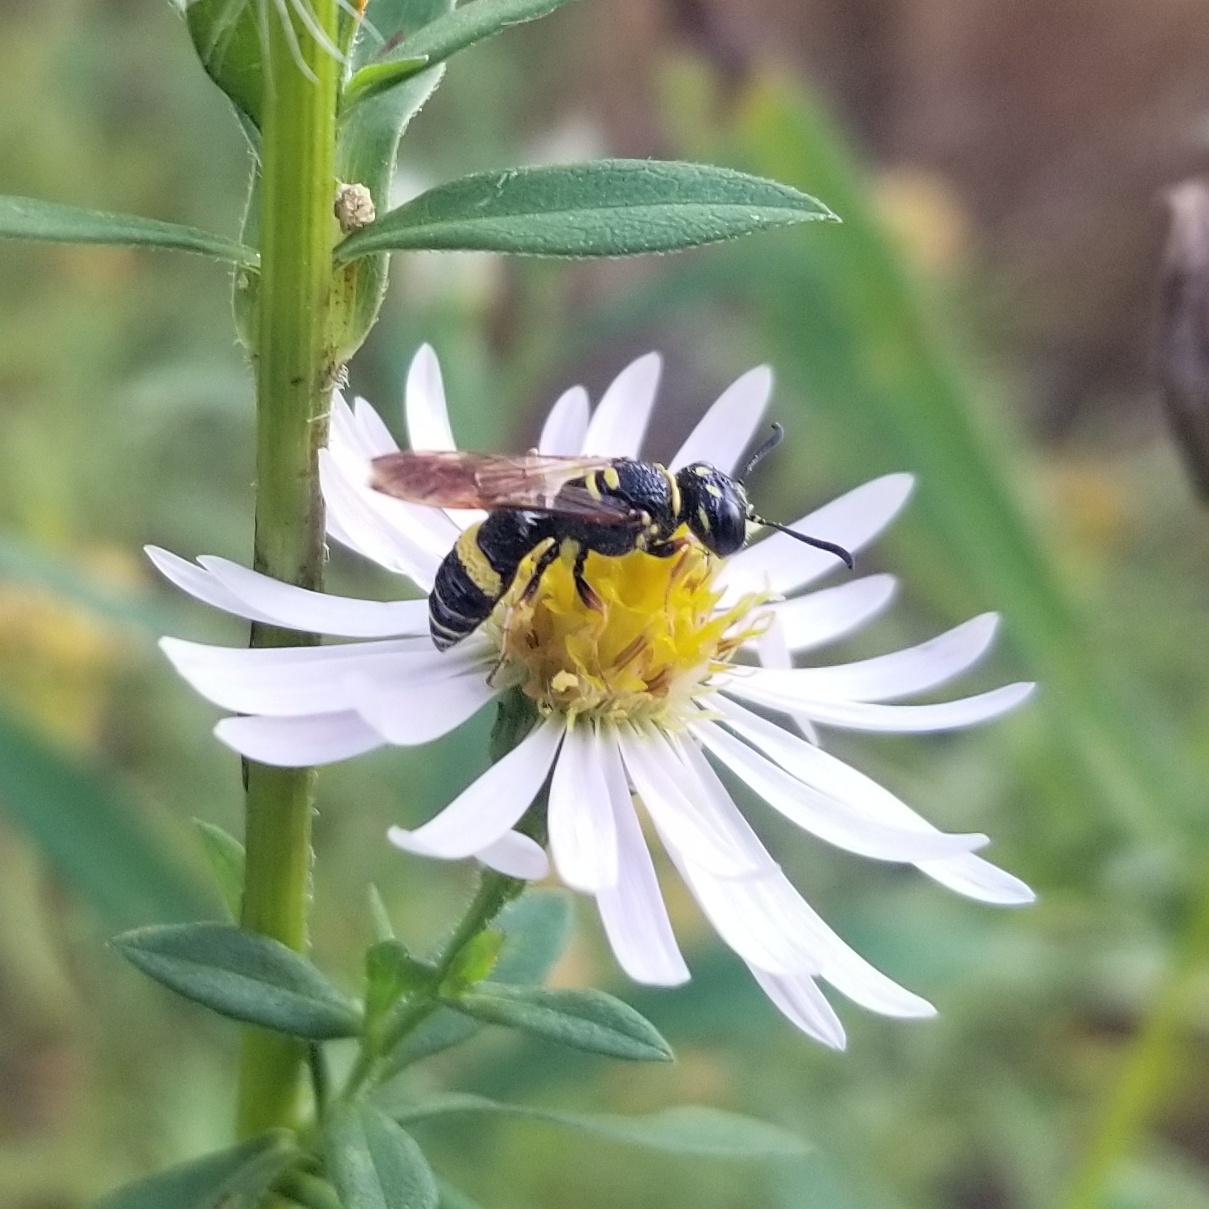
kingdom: Animalia
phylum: Arthropoda
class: Insecta
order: Hymenoptera
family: Crabronidae
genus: Philanthus
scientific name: Philanthus gibbosus
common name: Humped beewolf
